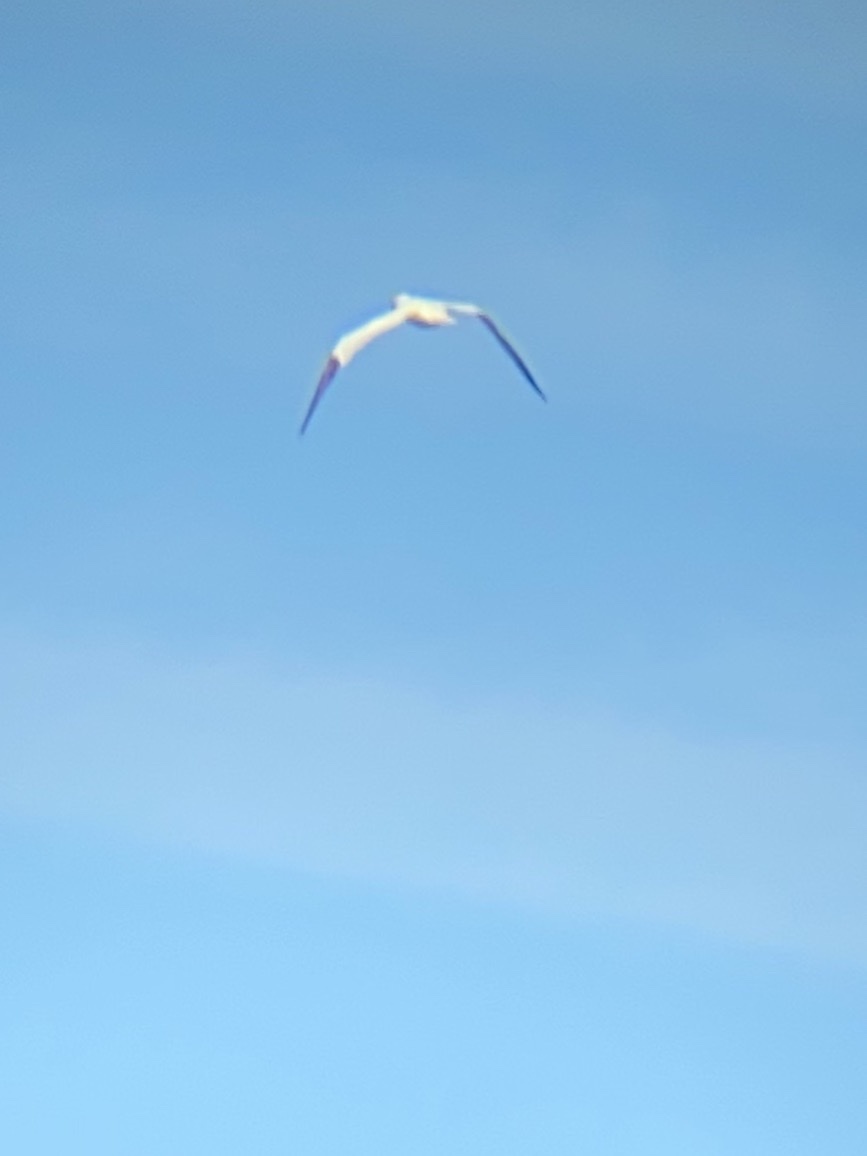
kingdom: Animalia
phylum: Chordata
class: Aves
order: Suliformes
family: Sulidae
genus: Morus
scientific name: Morus bassanus
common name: Northern gannet
